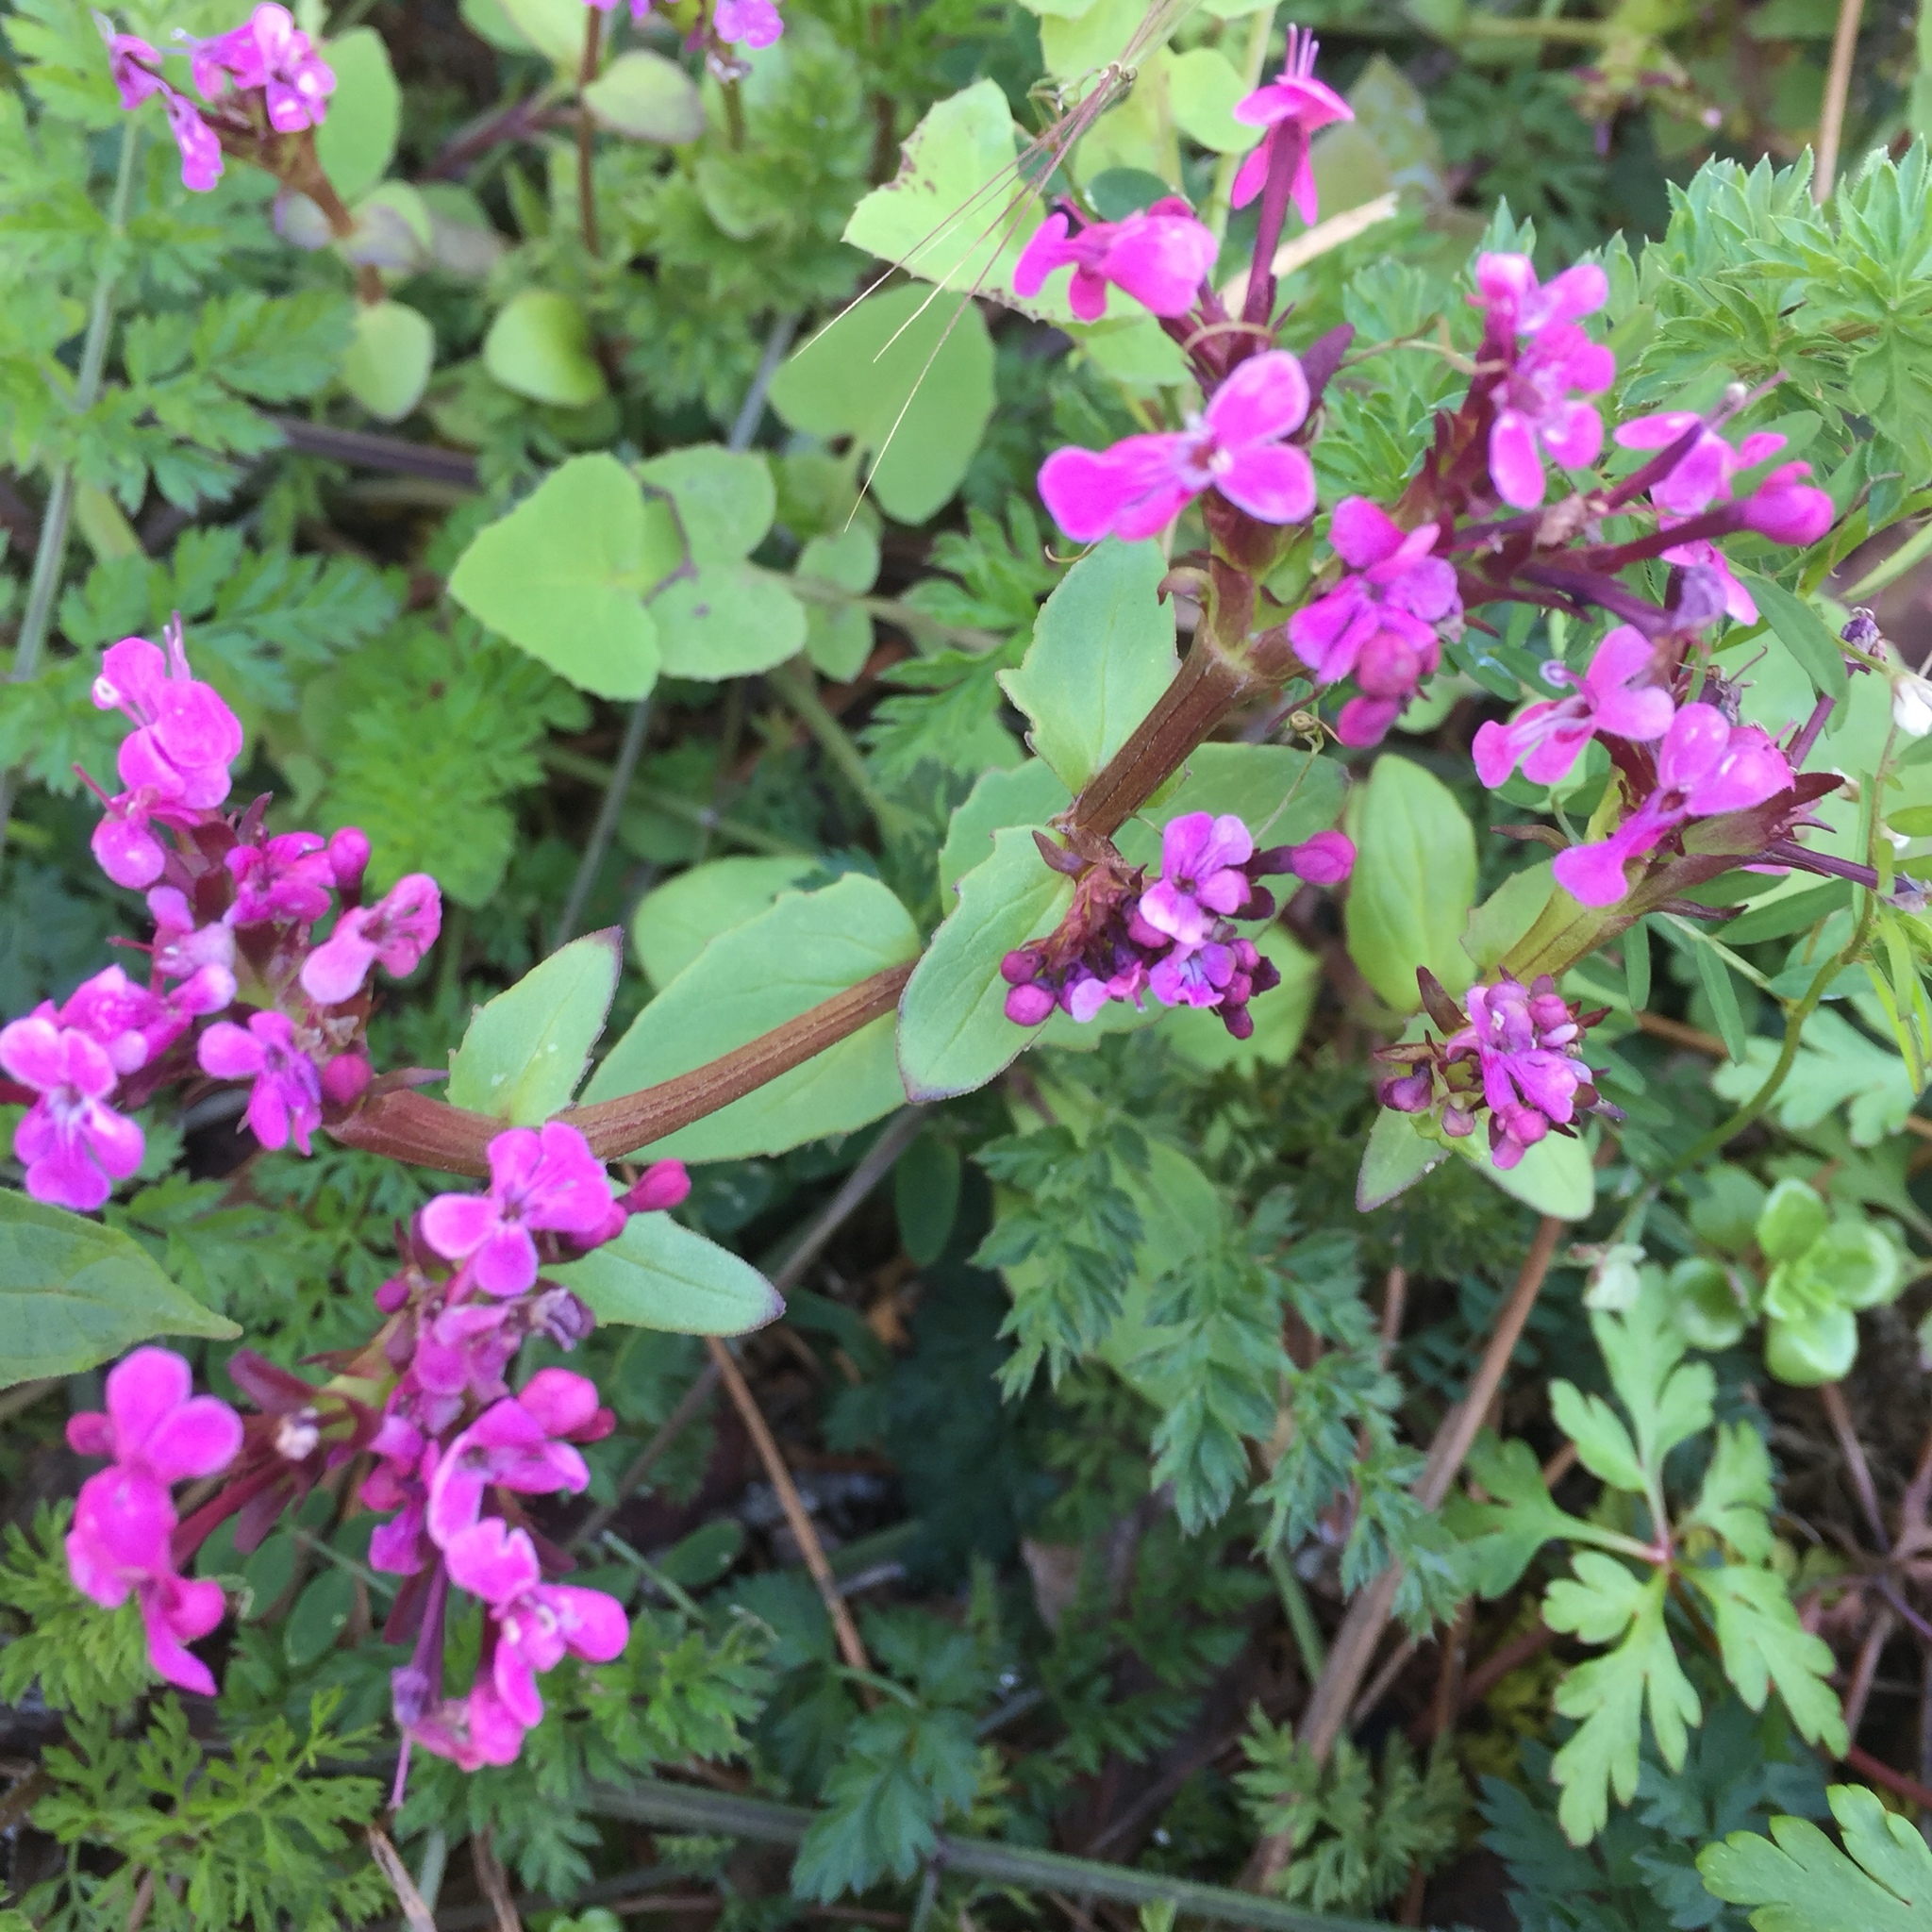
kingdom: Plantae
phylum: Tracheophyta
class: Magnoliopsida
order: Dipsacales
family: Caprifoliaceae
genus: Fedia
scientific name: Fedia graciliflora
